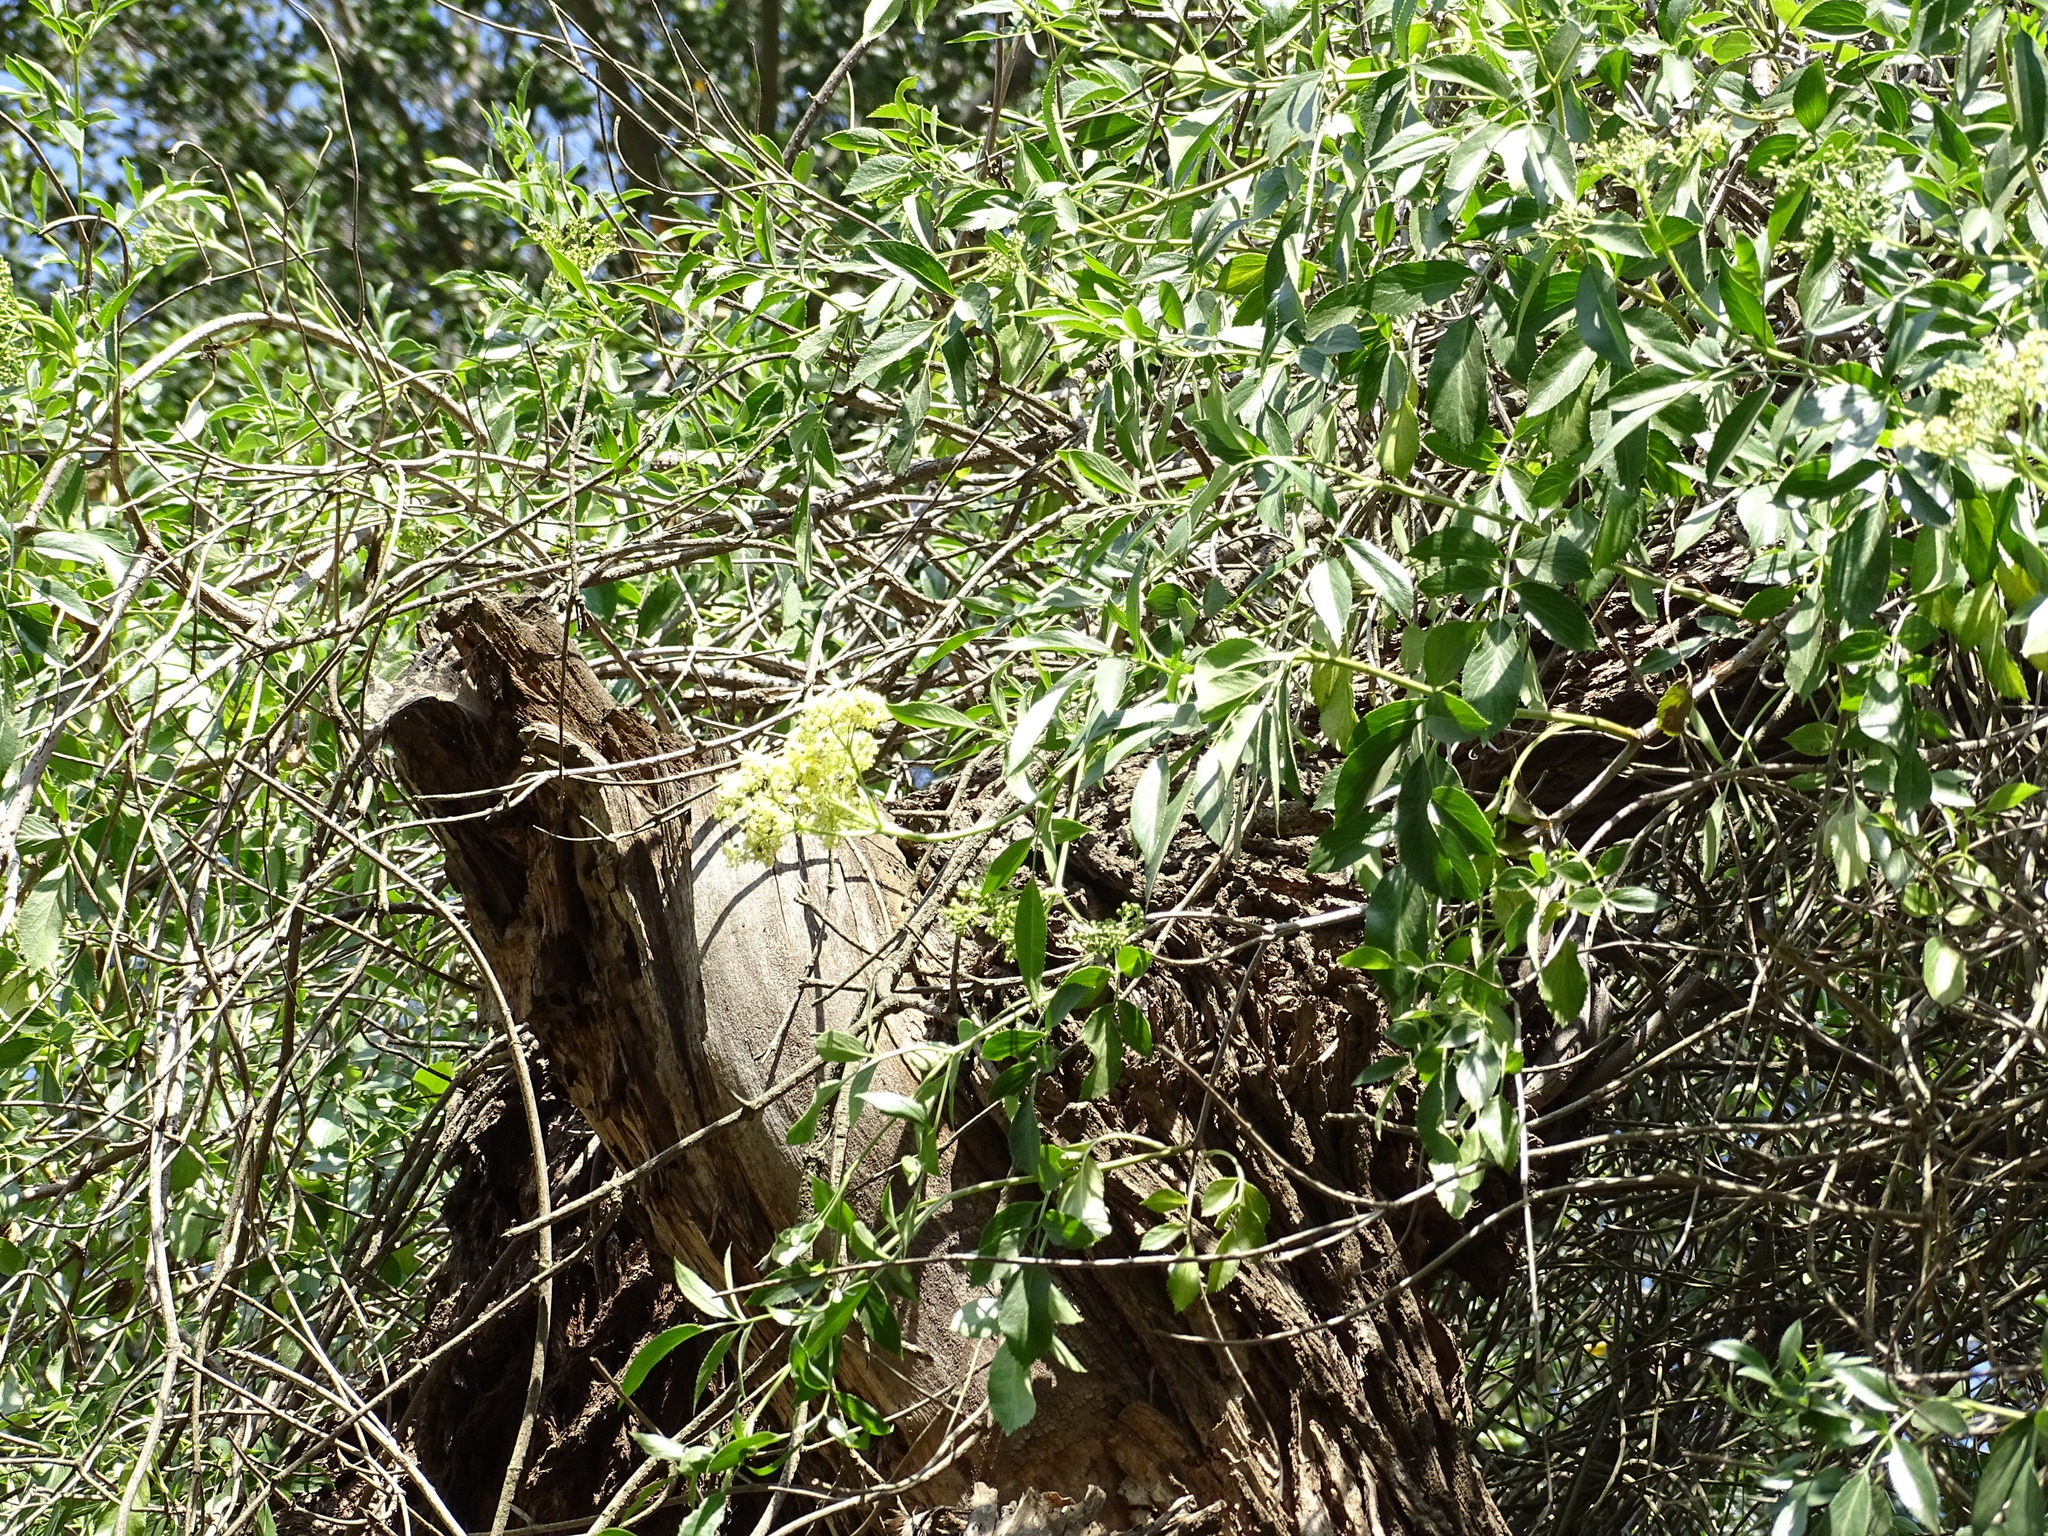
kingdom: Plantae
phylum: Tracheophyta
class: Magnoliopsida
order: Dipsacales
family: Viburnaceae
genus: Sambucus
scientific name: Sambucus cerulea
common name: Blue elder
